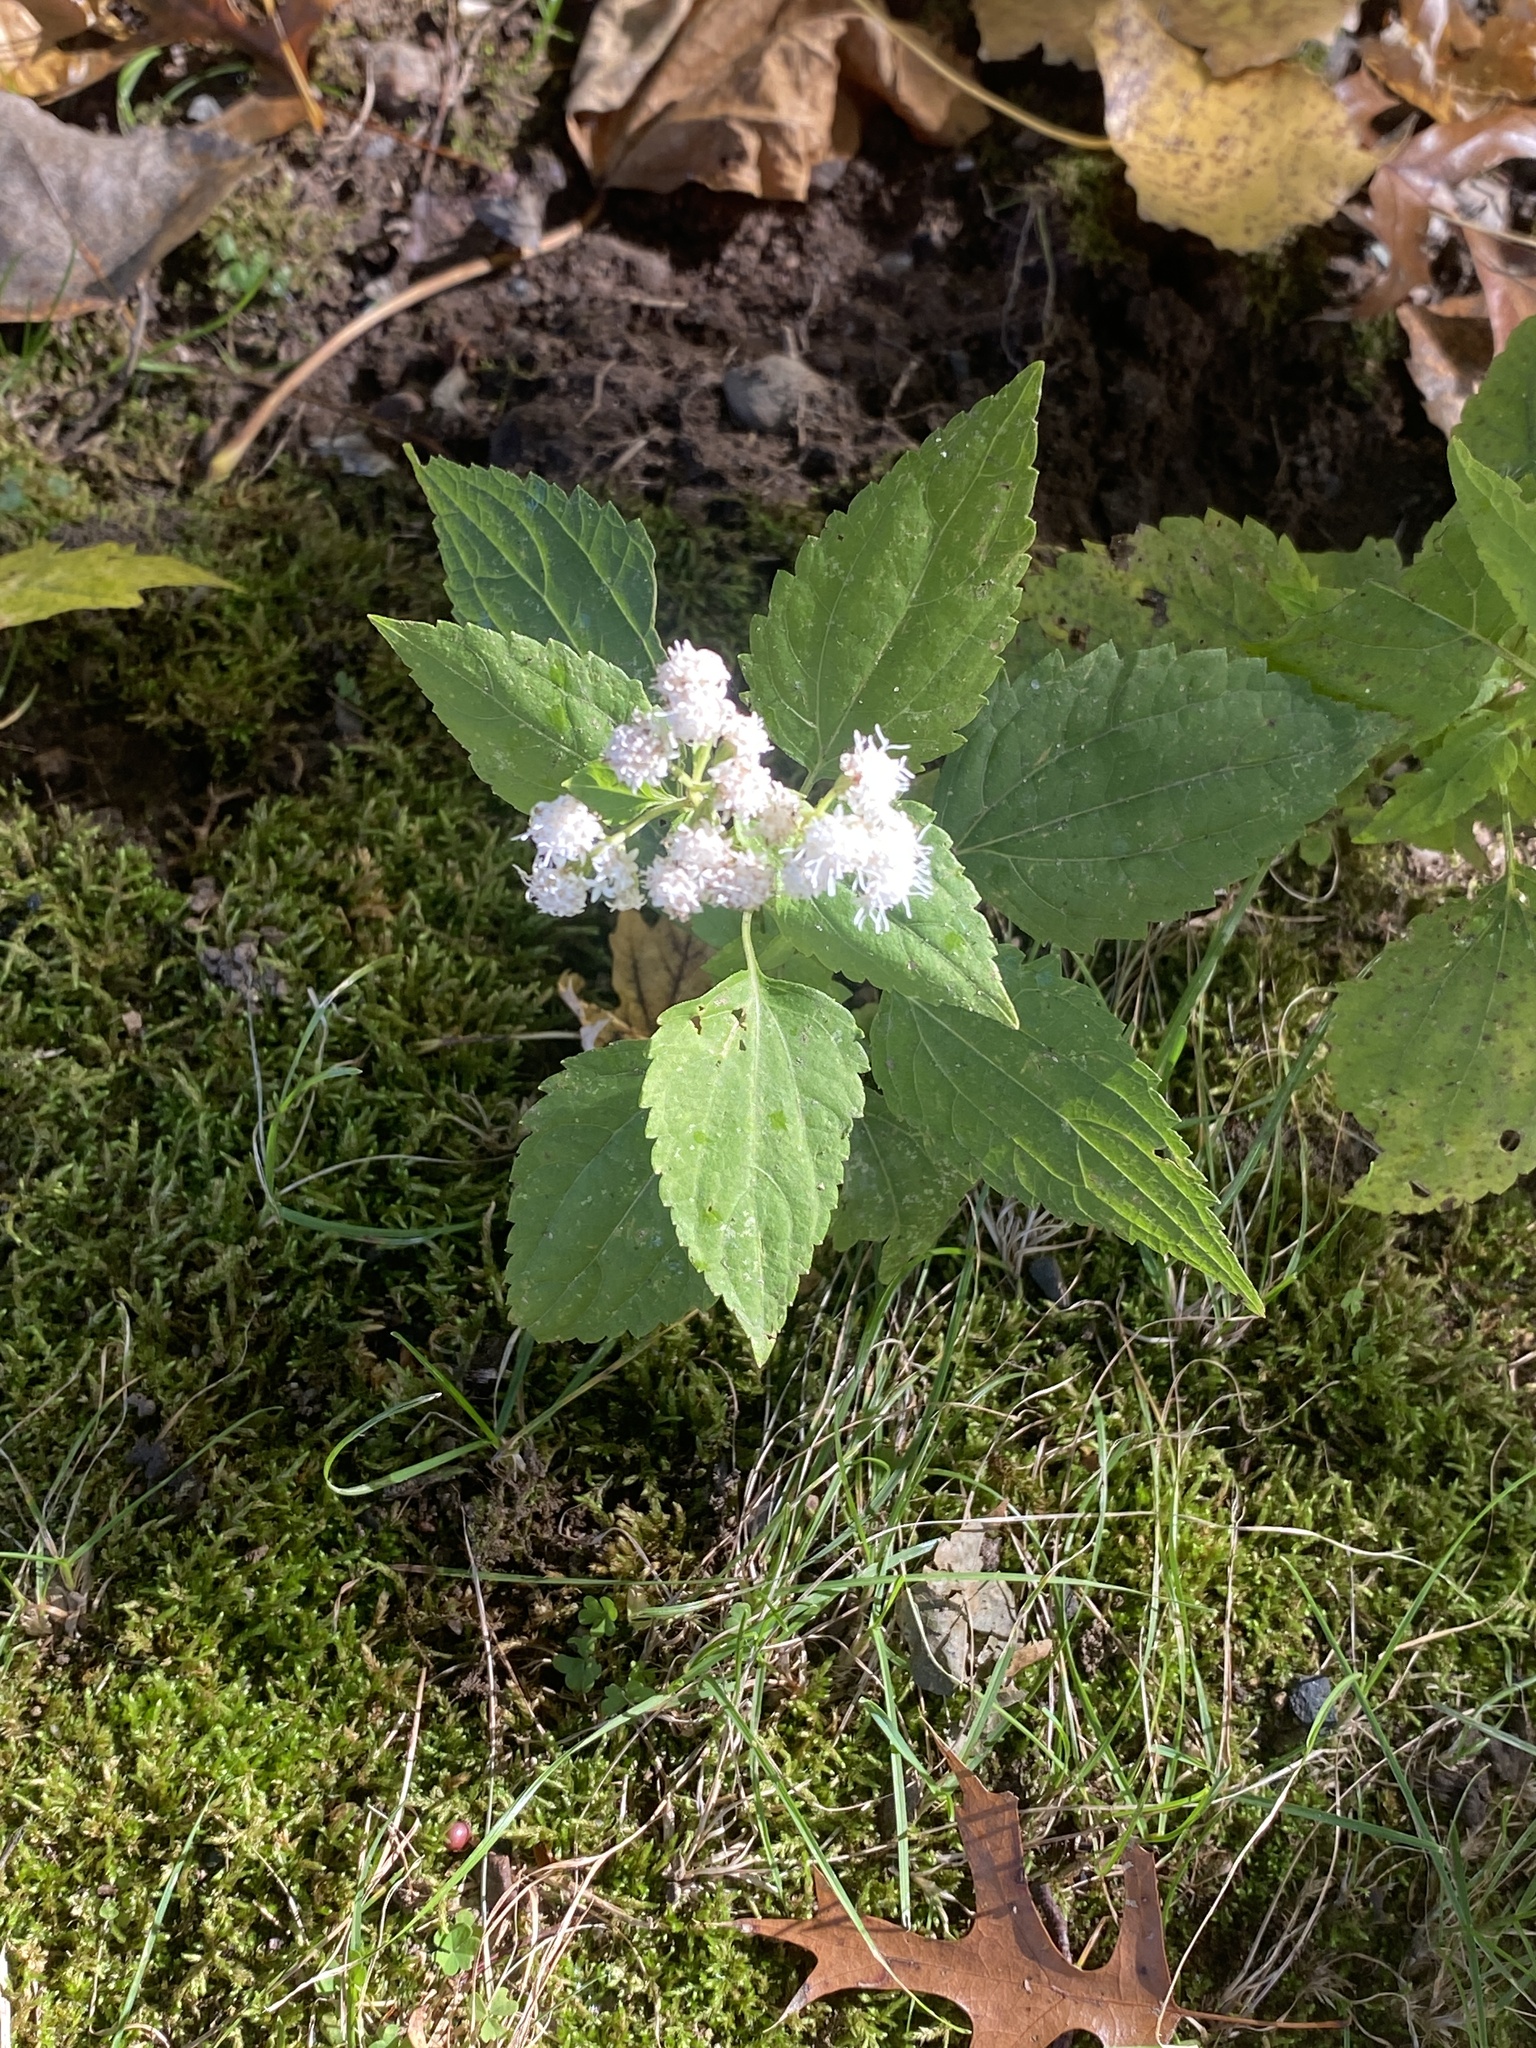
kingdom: Plantae
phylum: Tracheophyta
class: Magnoliopsida
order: Asterales
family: Asteraceae
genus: Ageratina
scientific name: Ageratina altissima
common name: White snakeroot
